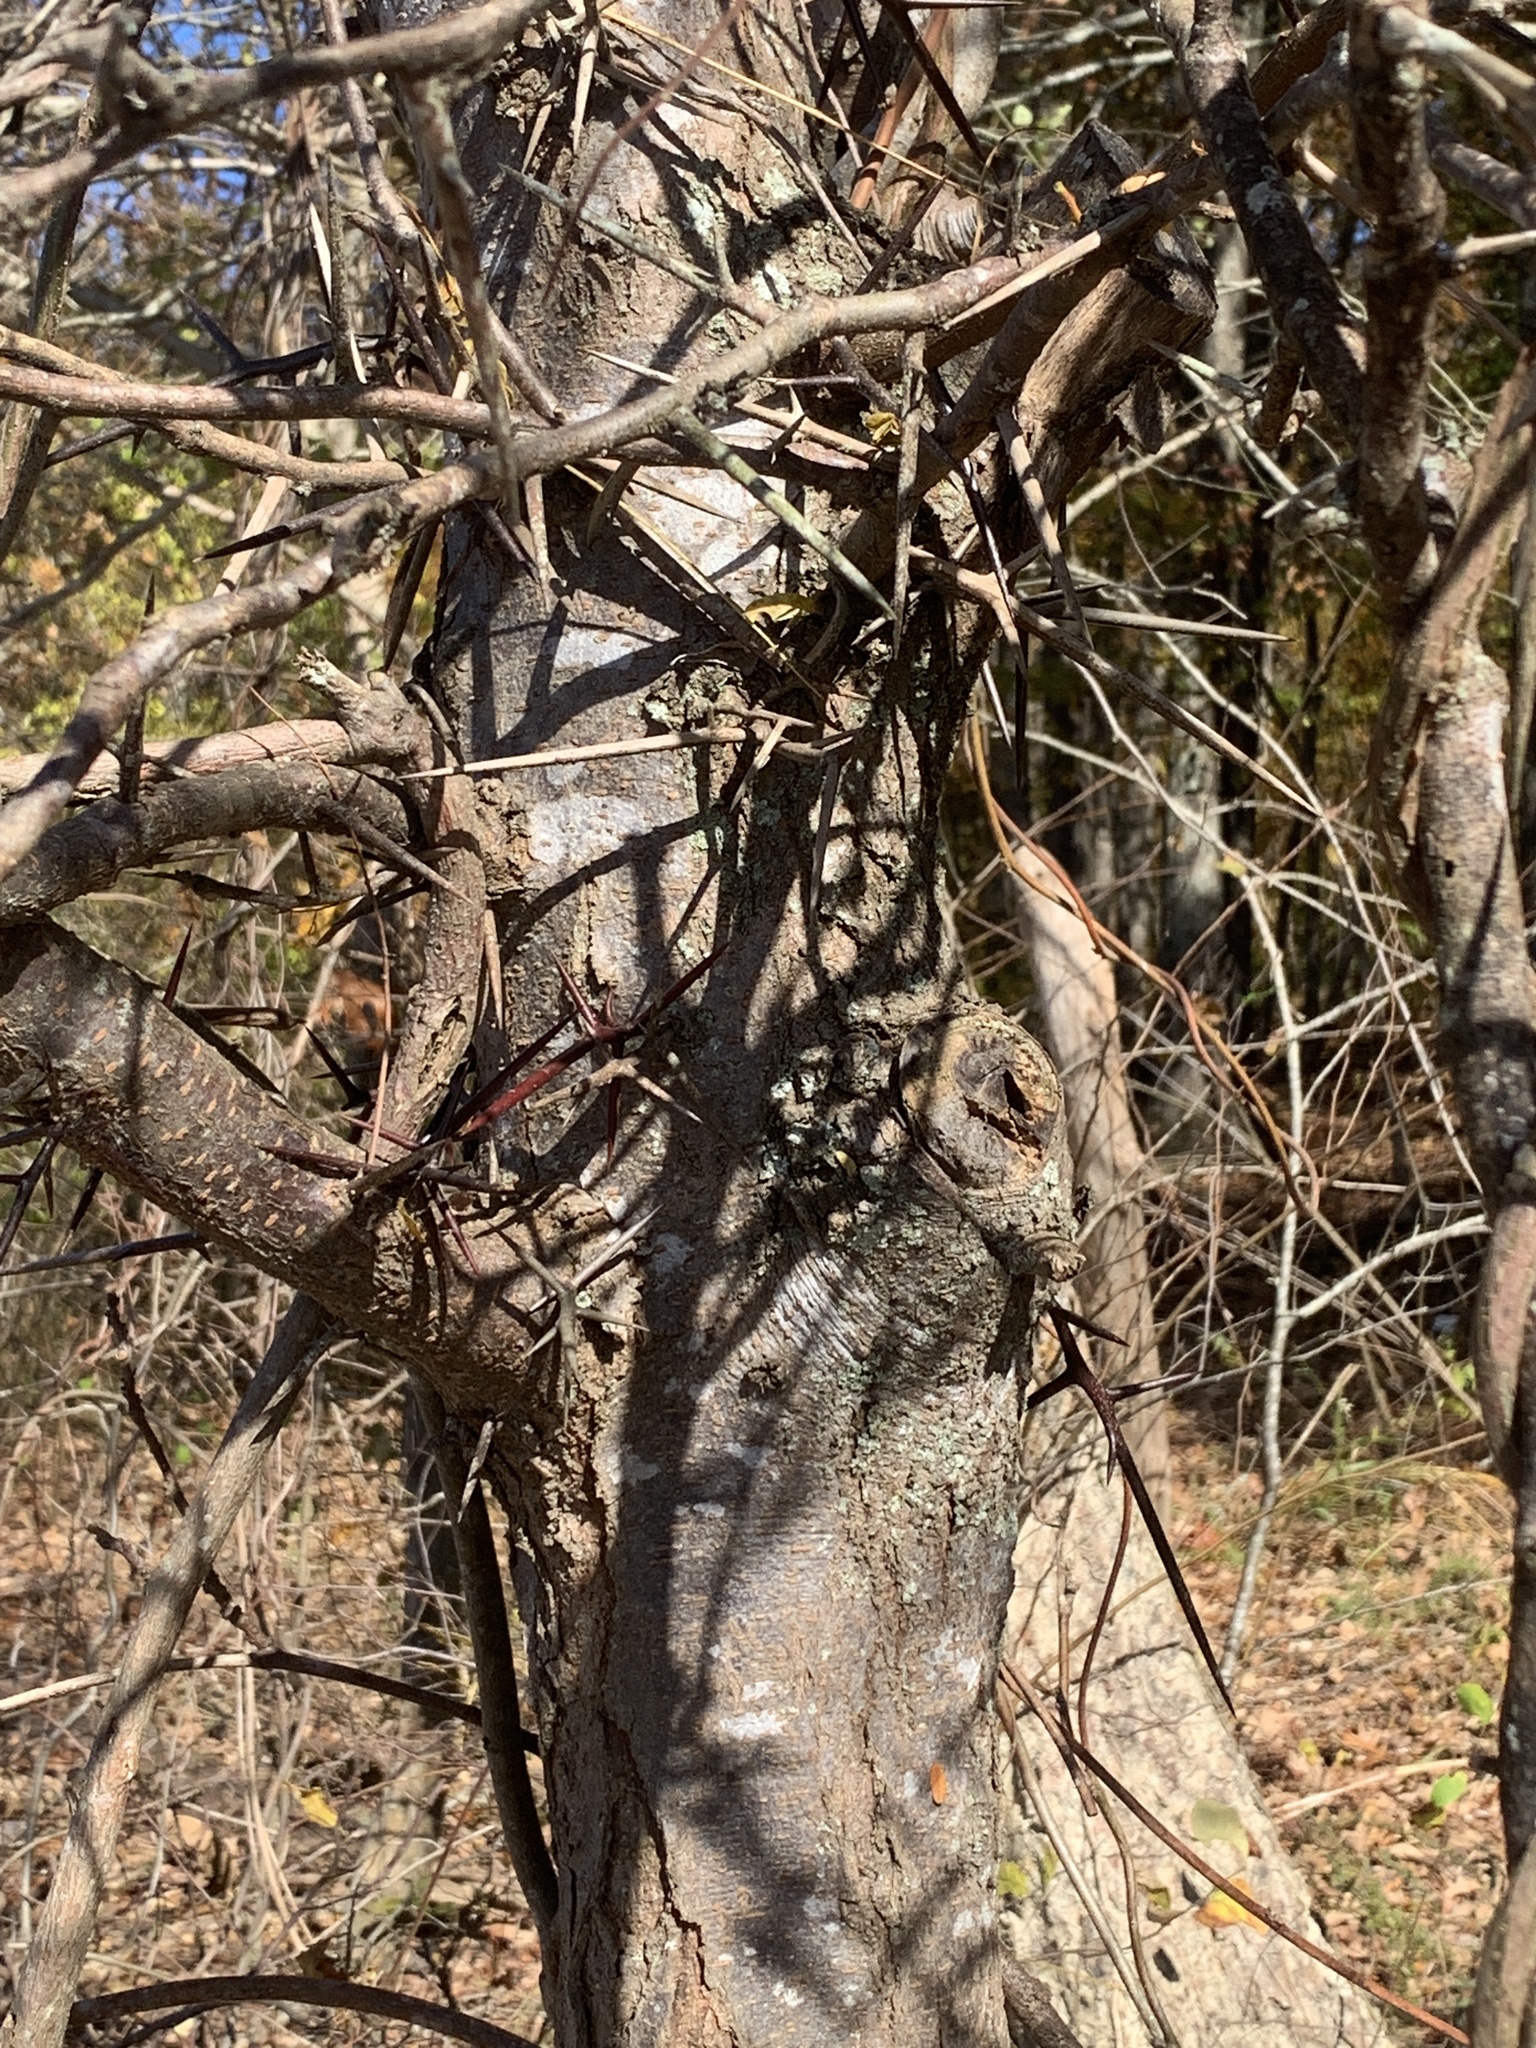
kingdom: Plantae
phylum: Tracheophyta
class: Magnoliopsida
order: Fabales
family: Fabaceae
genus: Gleditsia
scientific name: Gleditsia triacanthos
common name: Common honeylocust
